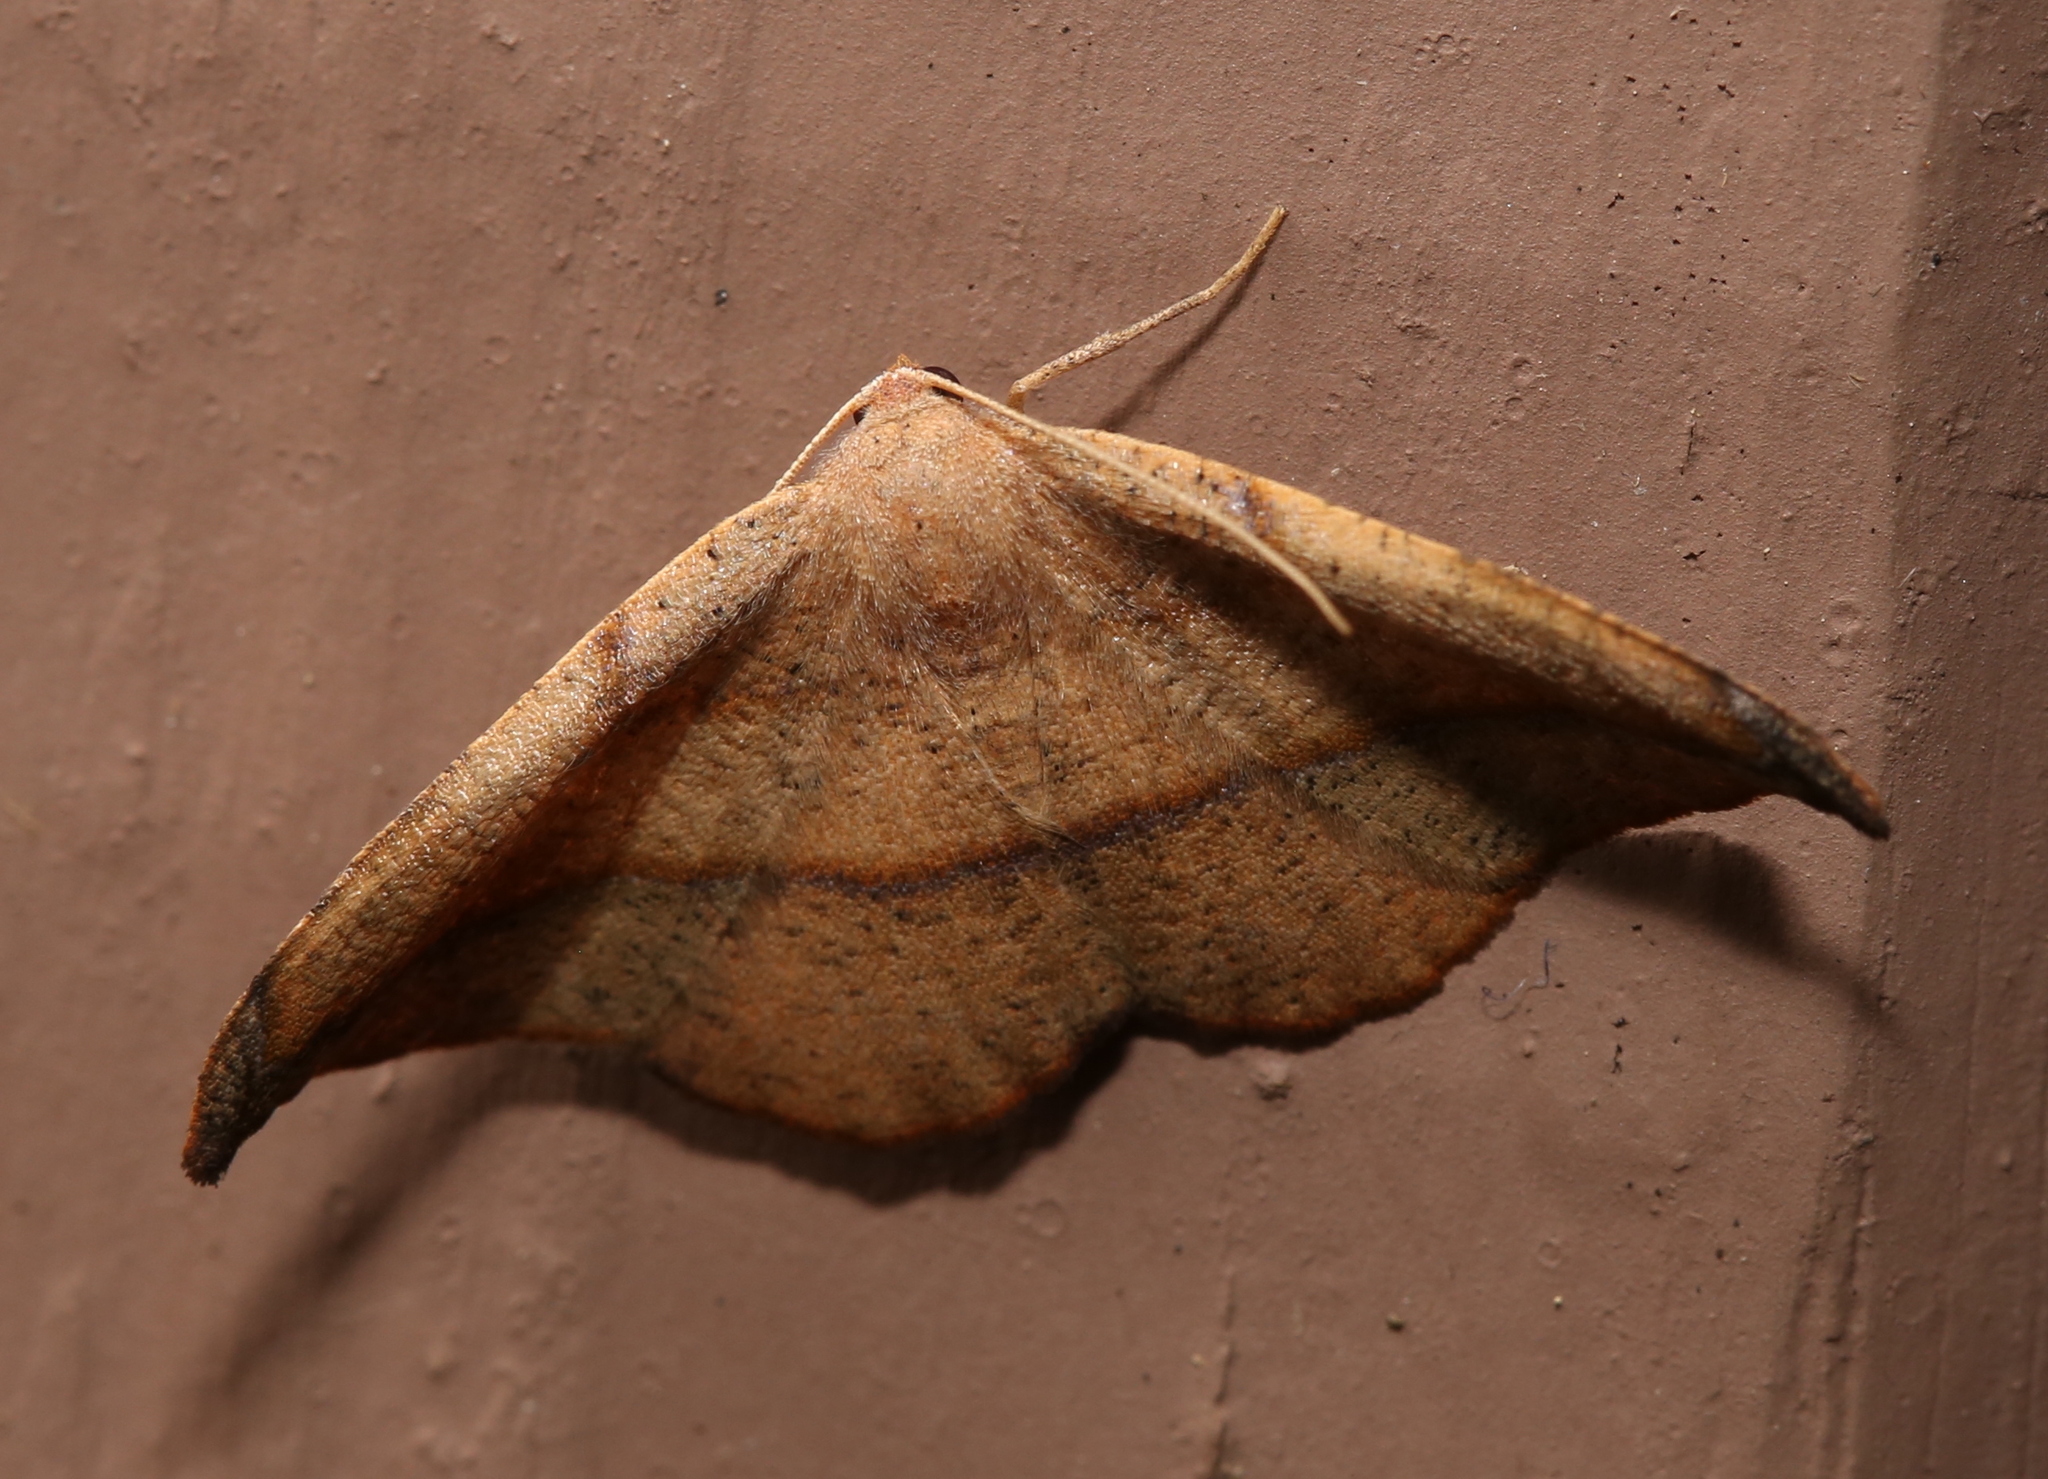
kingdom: Animalia
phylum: Arthropoda
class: Insecta
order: Lepidoptera
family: Geometridae
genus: Patalene
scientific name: Patalene olyzonaria
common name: Juniper geometer moth
